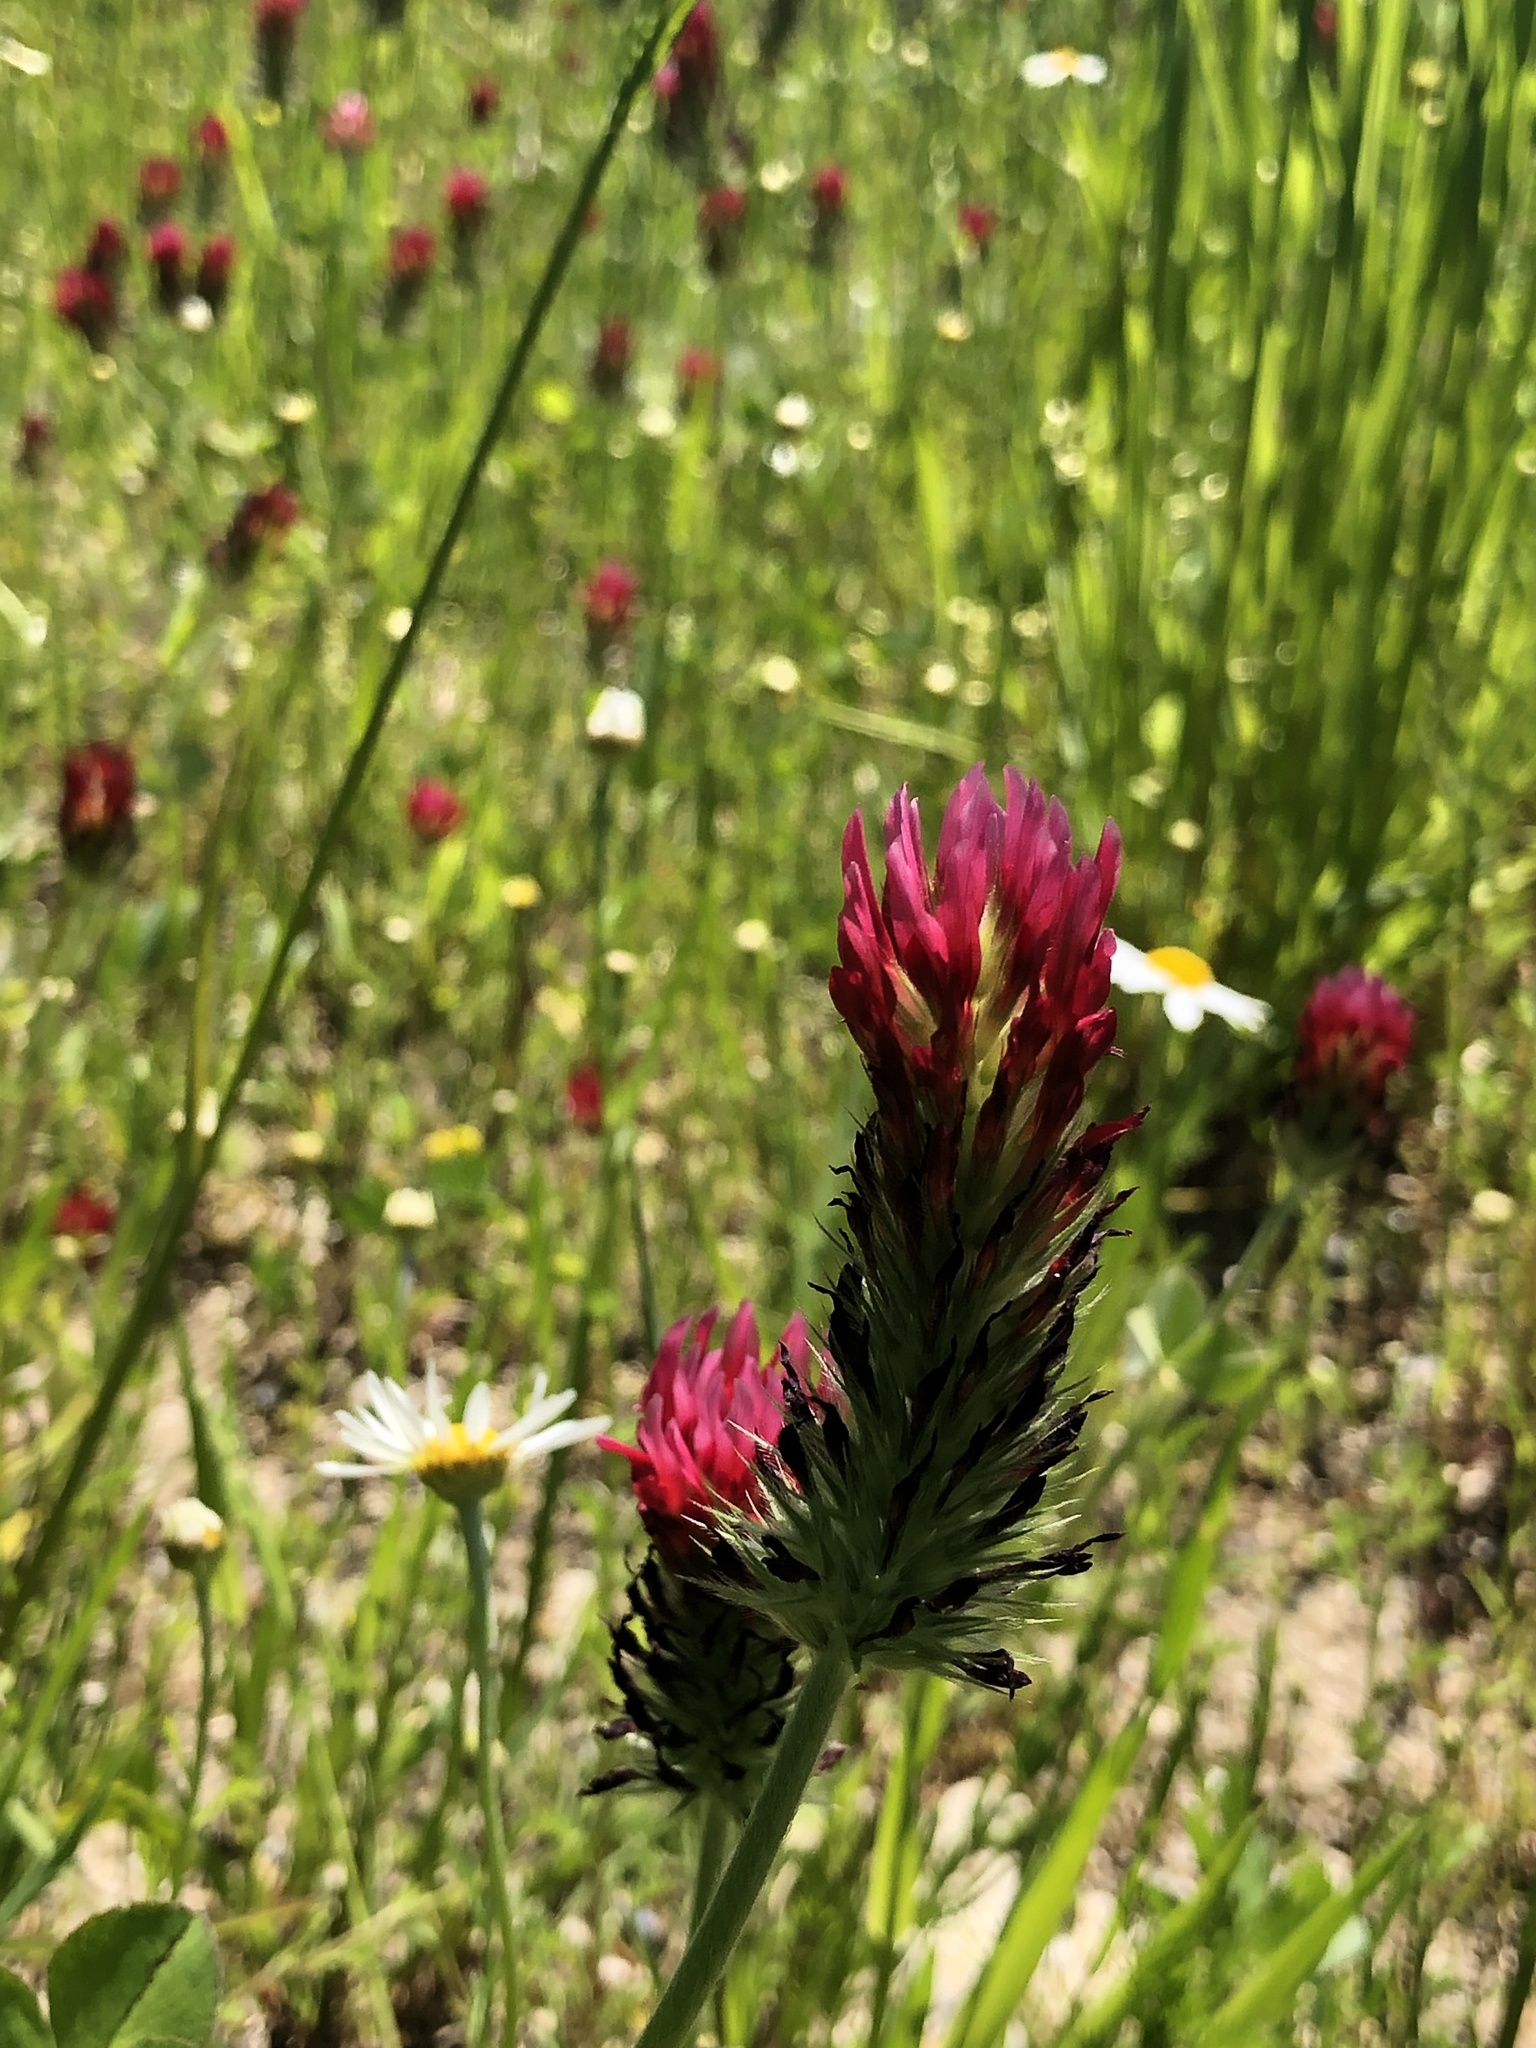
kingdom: Plantae
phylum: Tracheophyta
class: Magnoliopsida
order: Fabales
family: Fabaceae
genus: Trifolium
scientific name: Trifolium incarnatum
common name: Crimson clover
